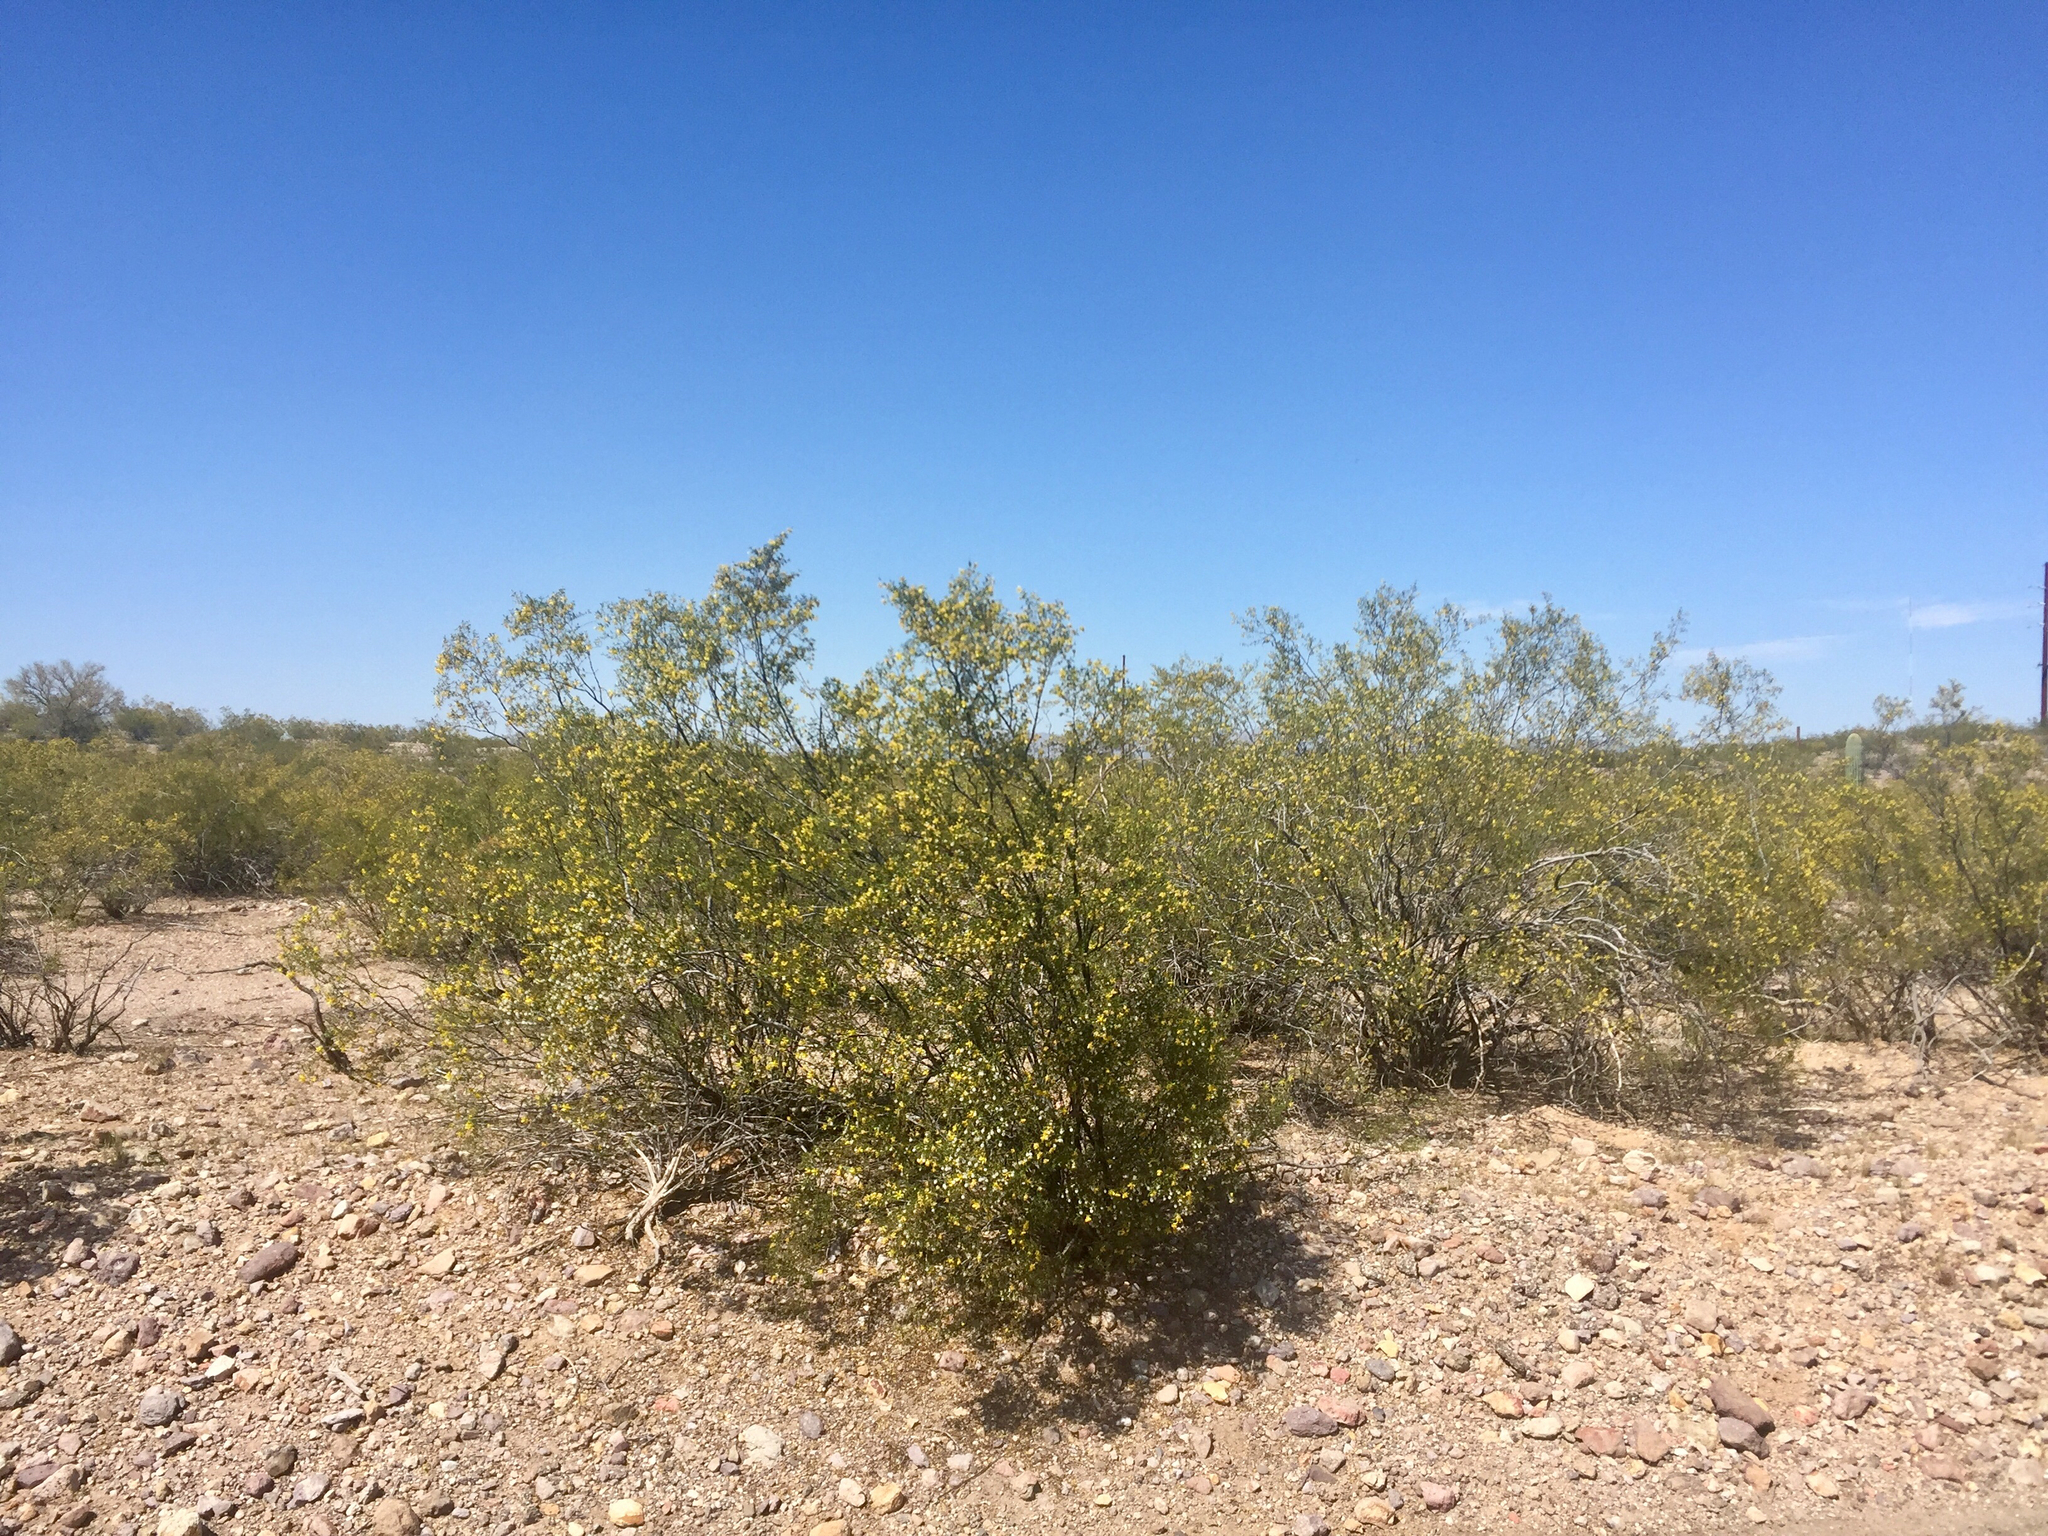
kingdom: Plantae
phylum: Tracheophyta
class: Magnoliopsida
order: Zygophyllales
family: Zygophyllaceae
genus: Larrea
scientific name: Larrea tridentata
